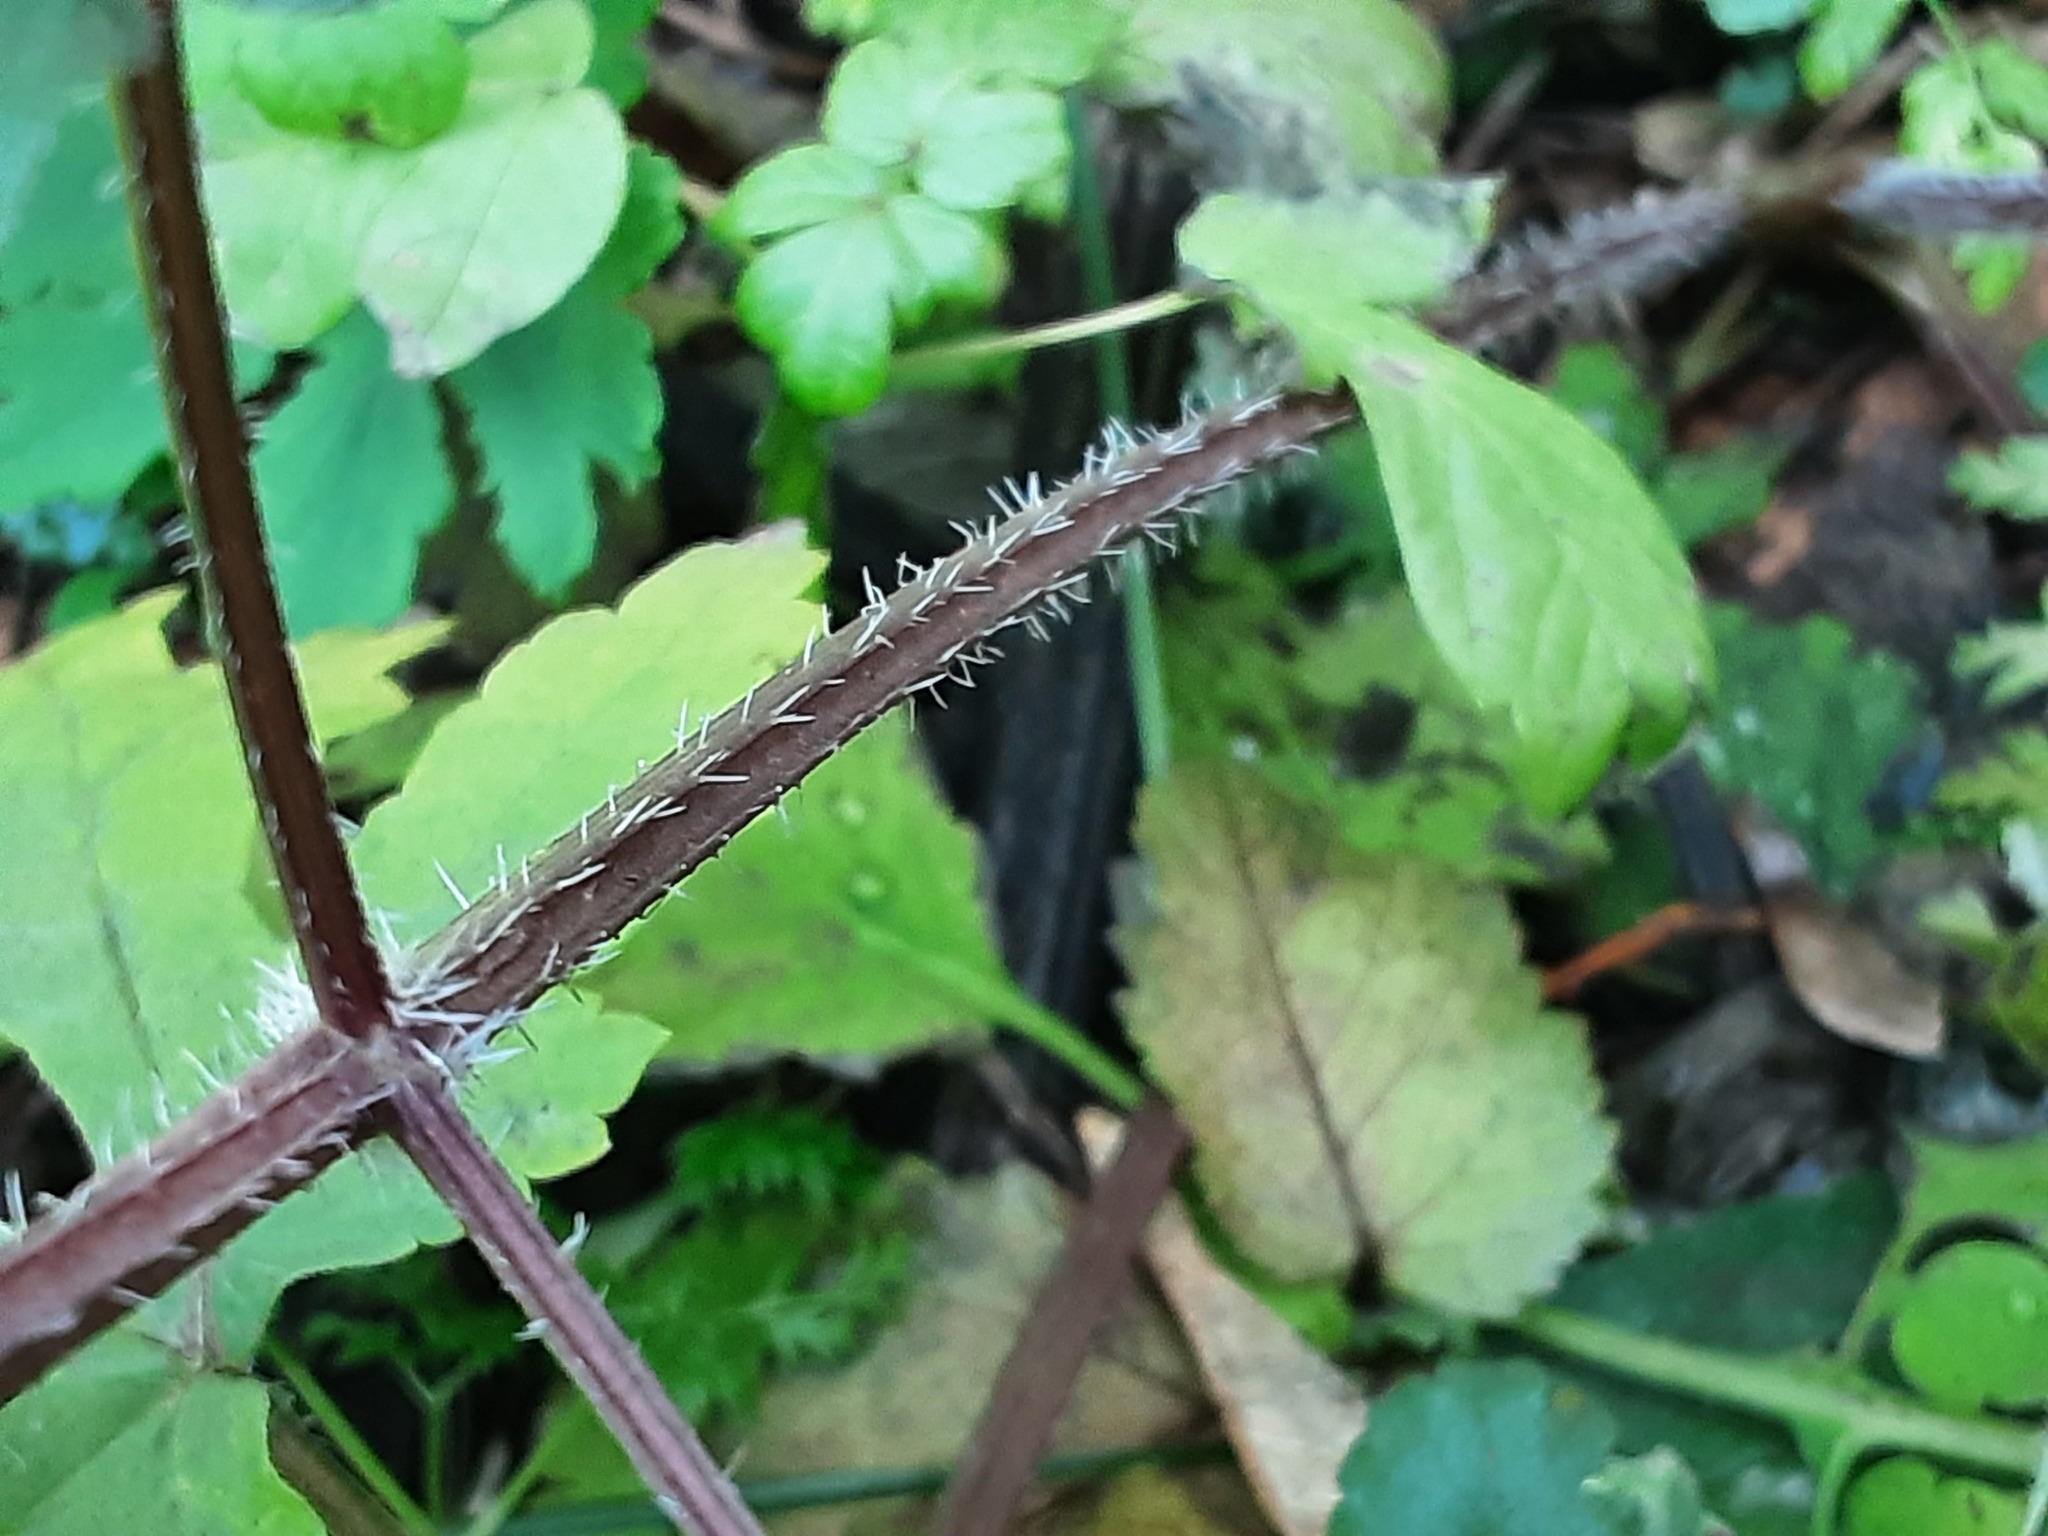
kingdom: Plantae
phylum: Tracheophyta
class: Magnoliopsida
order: Apiales
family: Apiaceae
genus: Heracleum
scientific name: Heracleum sphondylium
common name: Hogweed
